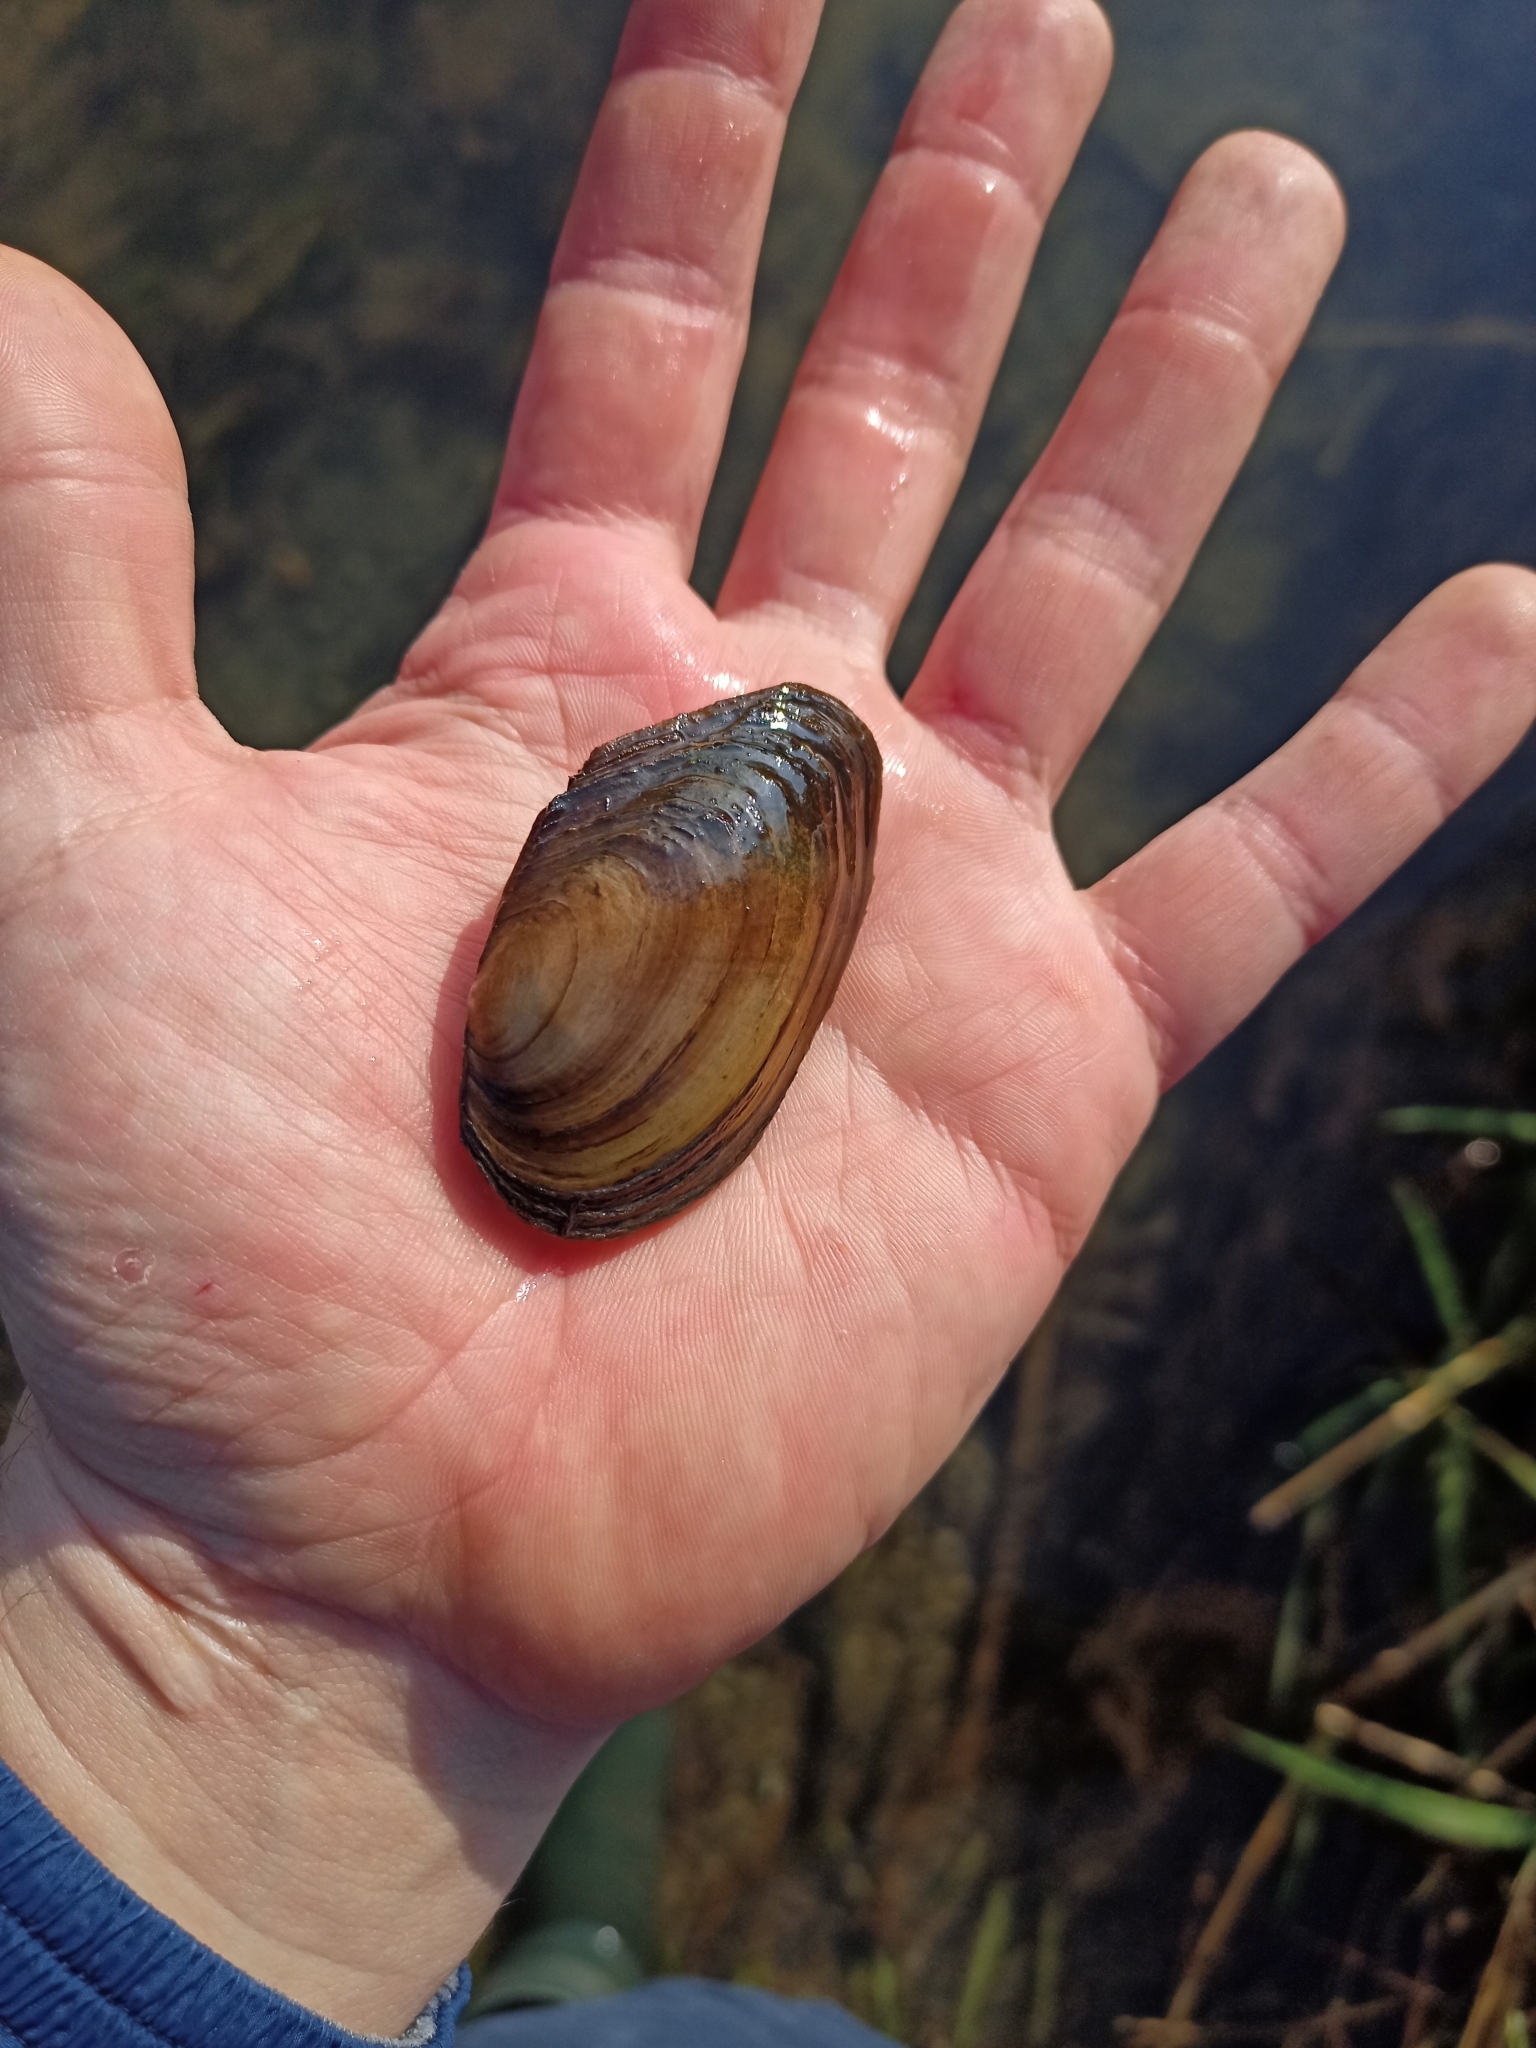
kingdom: Animalia
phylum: Mollusca
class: Bivalvia
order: Unionida
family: Unionidae
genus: Anodonta
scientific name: Anodonta anatina
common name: Duck mussel
